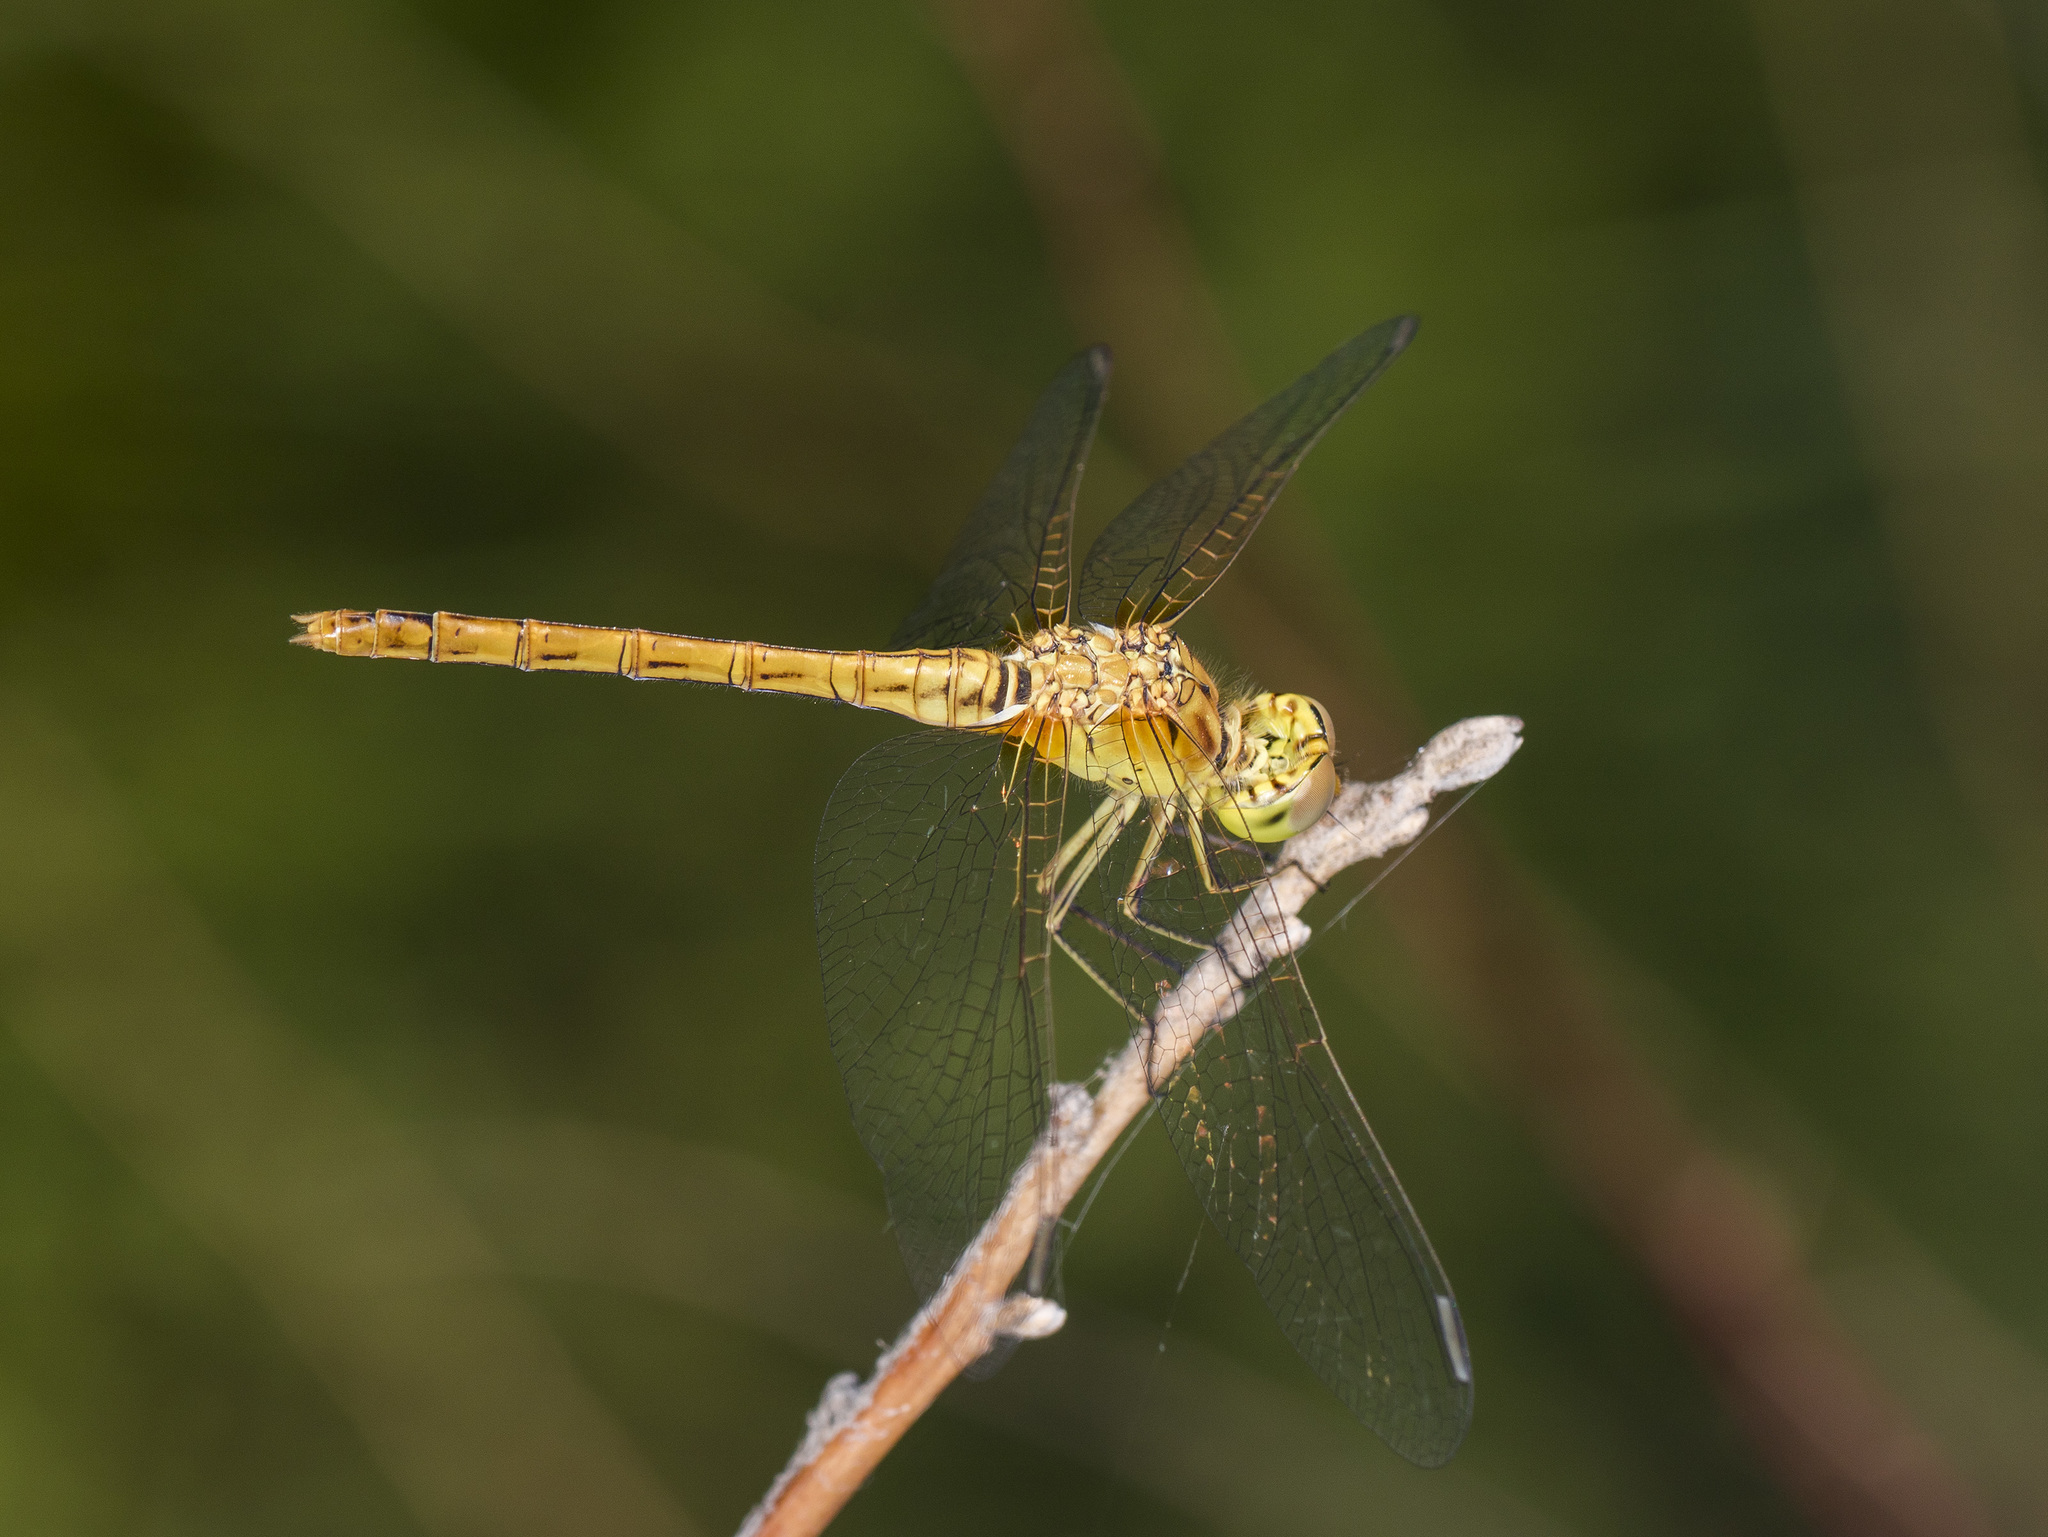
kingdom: Animalia
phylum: Arthropoda
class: Insecta
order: Odonata
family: Libellulidae
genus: Sympetrum
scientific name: Sympetrum meridionale
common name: Southern darter
